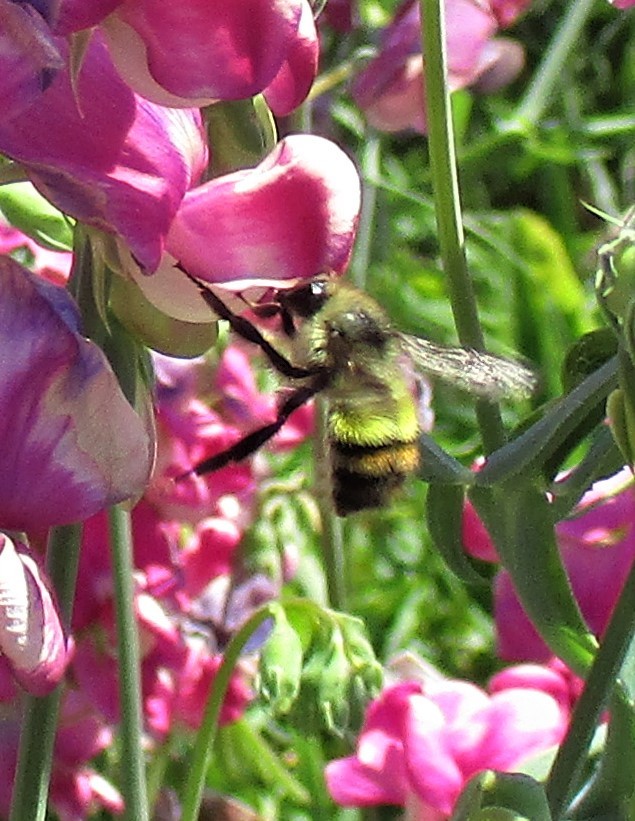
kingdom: Animalia
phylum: Arthropoda
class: Insecta
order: Hymenoptera
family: Apidae
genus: Bombus
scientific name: Bombus flavifrons
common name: Yellow head bumble bee
